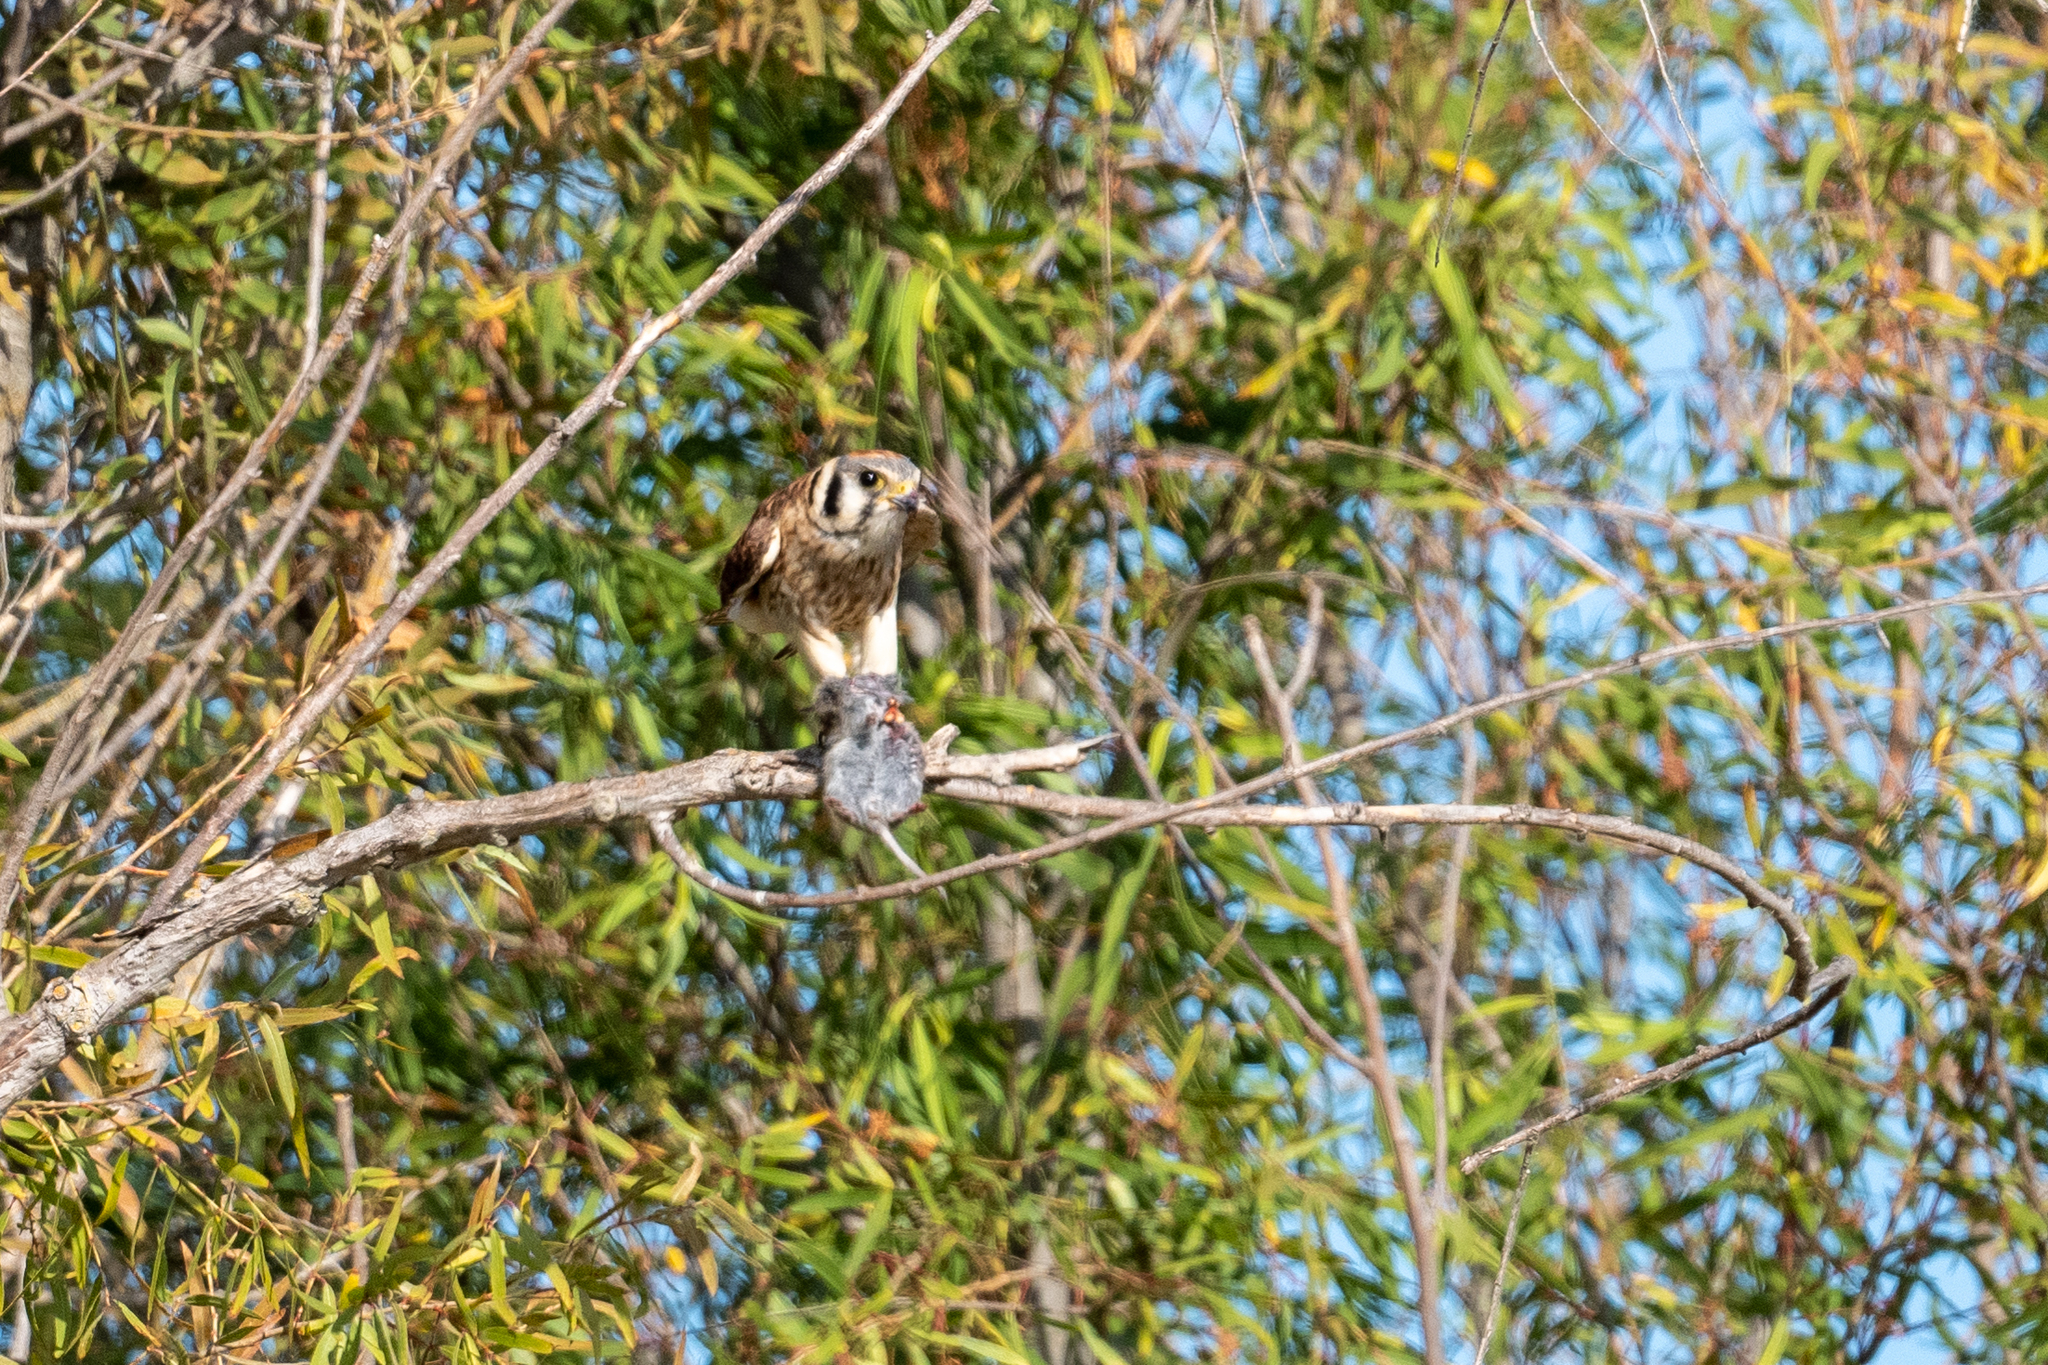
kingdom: Animalia
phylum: Chordata
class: Aves
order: Falconiformes
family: Falconidae
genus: Falco
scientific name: Falco sparverius
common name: American kestrel
